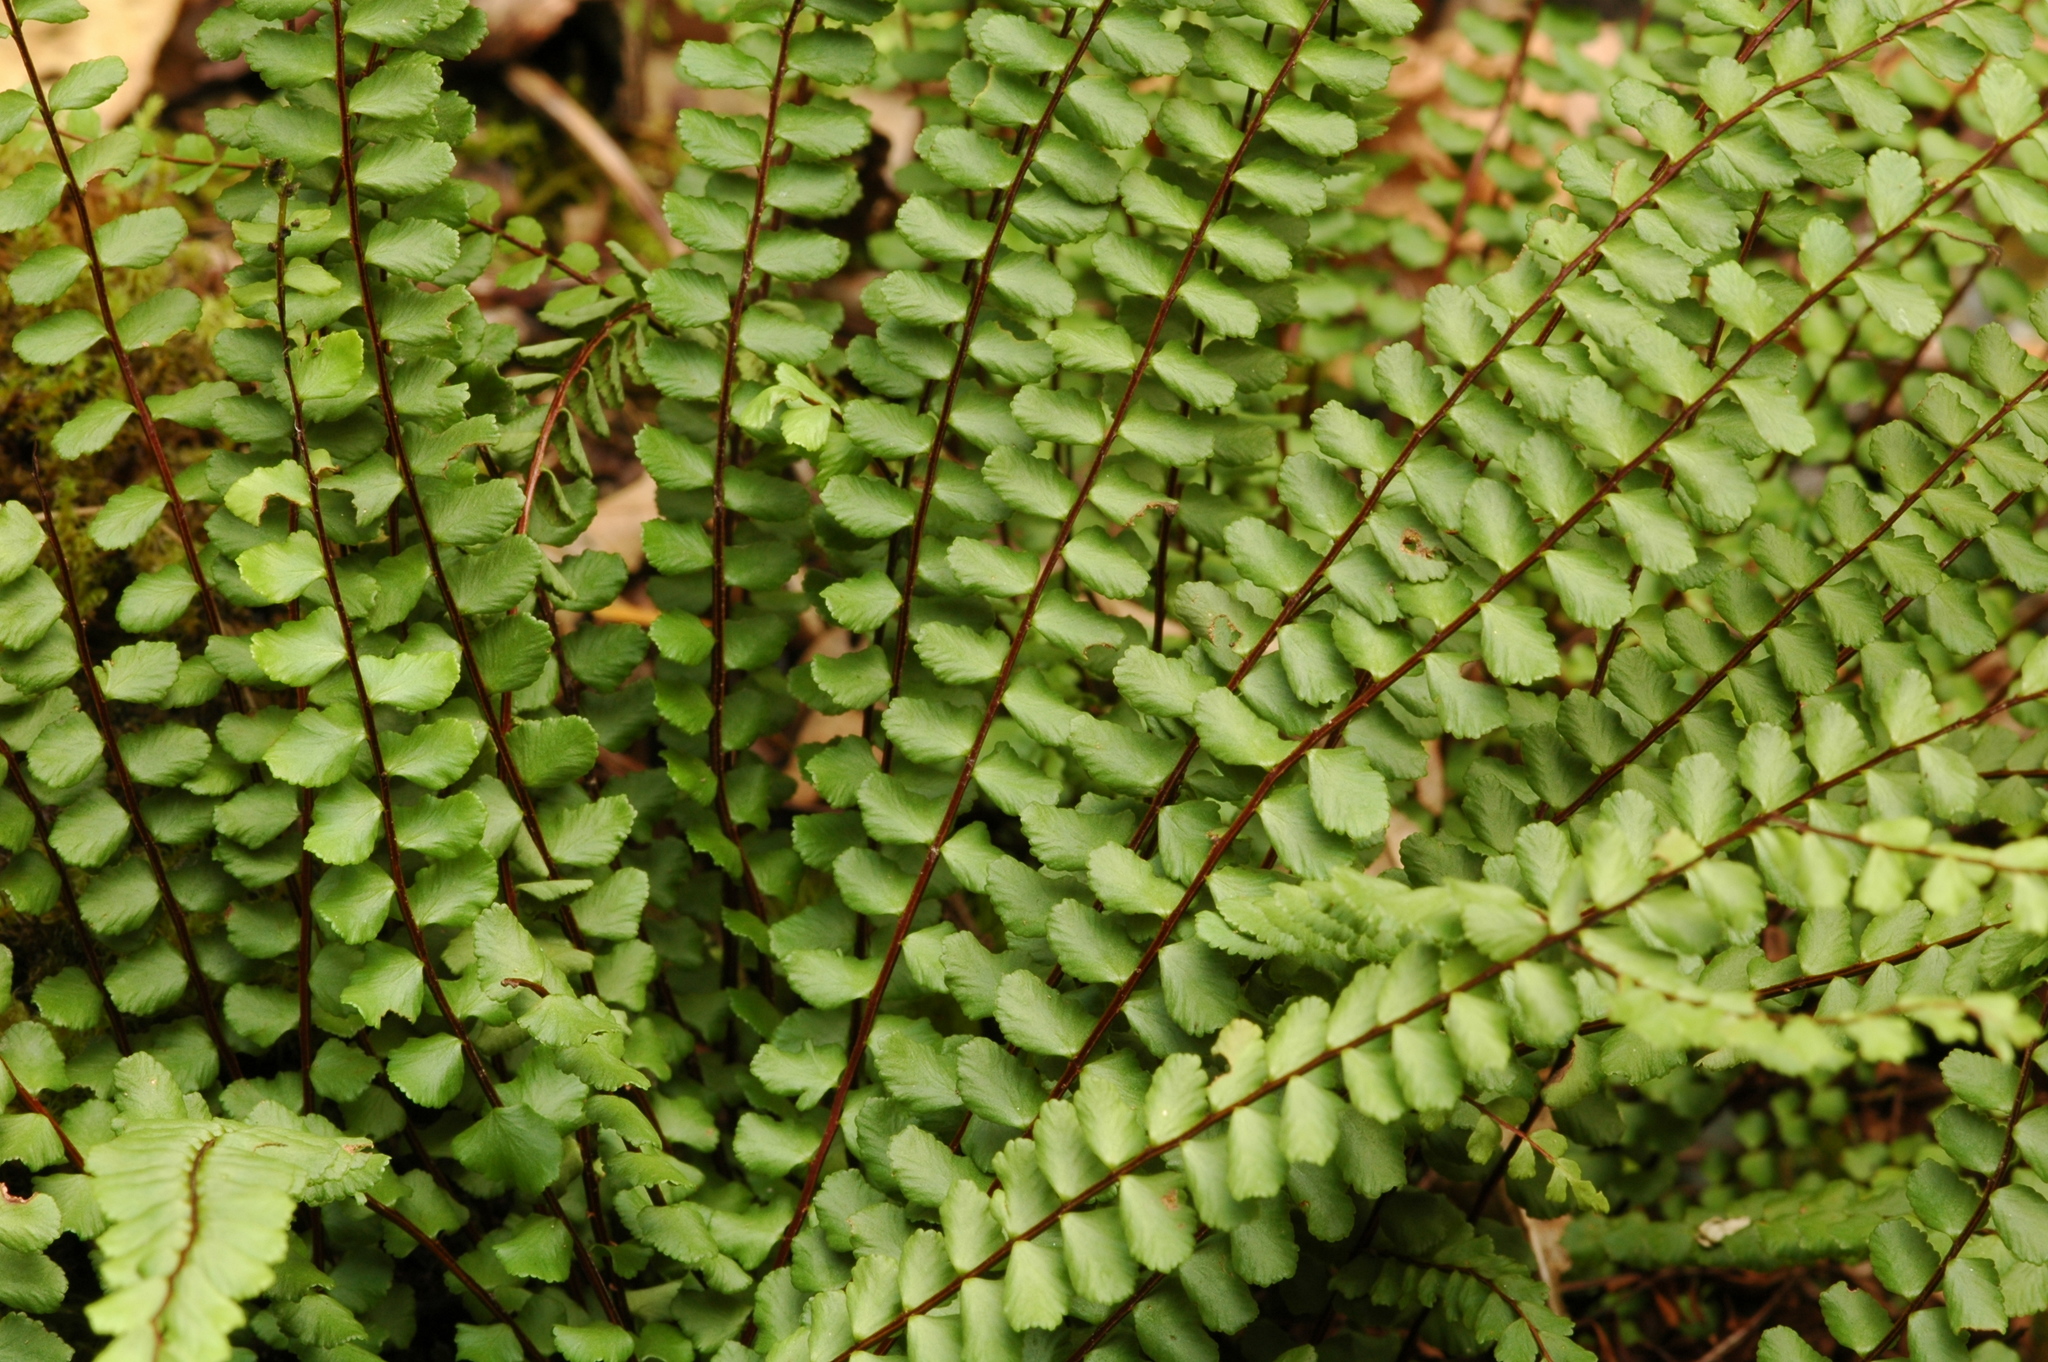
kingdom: Plantae
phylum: Tracheophyta
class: Polypodiopsida
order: Polypodiales
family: Aspleniaceae
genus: Asplenium
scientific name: Asplenium trichomanes
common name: Maidenhair spleenwort
